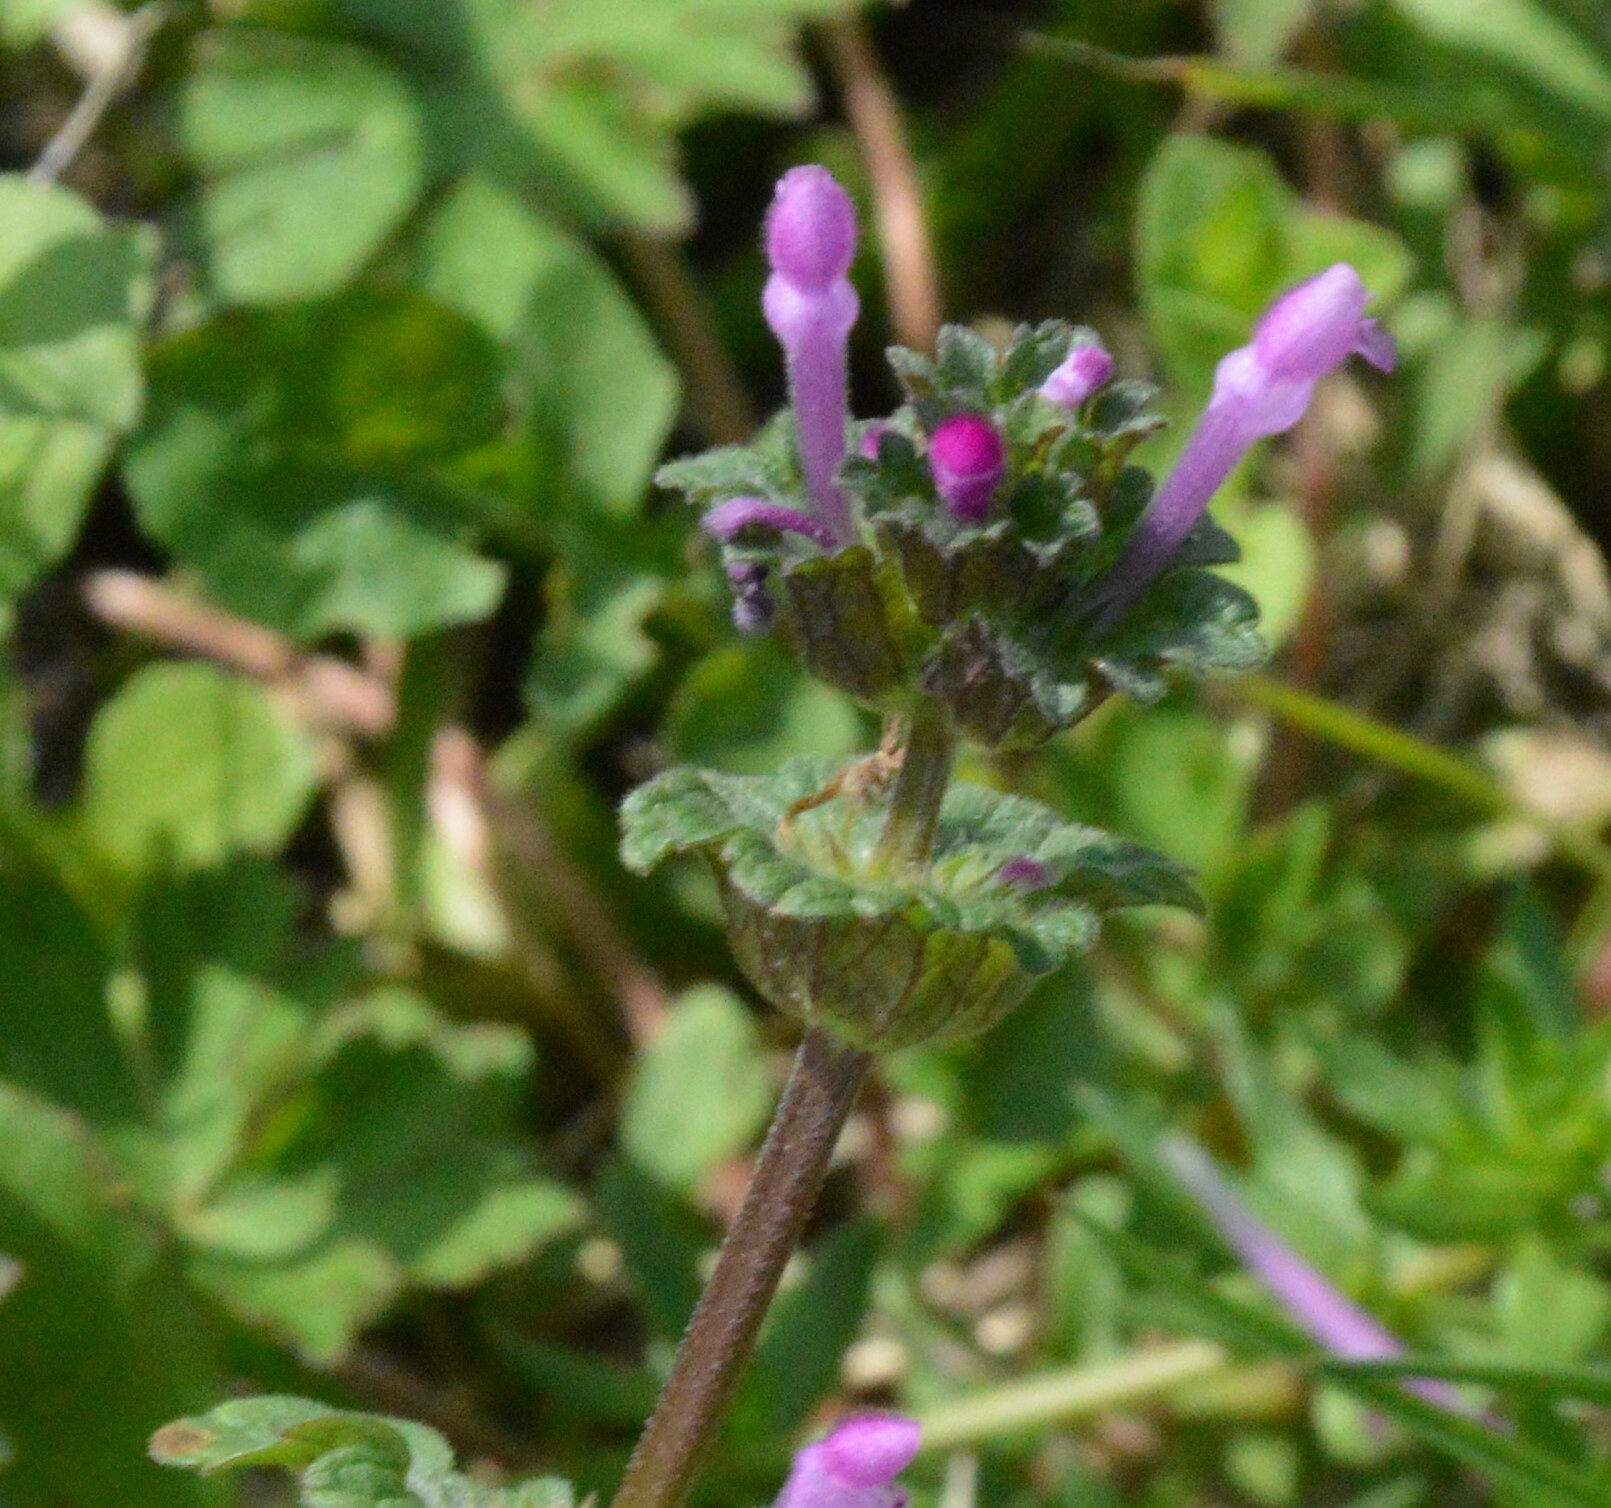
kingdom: Plantae
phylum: Tracheophyta
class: Magnoliopsida
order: Lamiales
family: Lamiaceae
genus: Lamium
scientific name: Lamium amplexicaule
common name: Henbit dead-nettle
